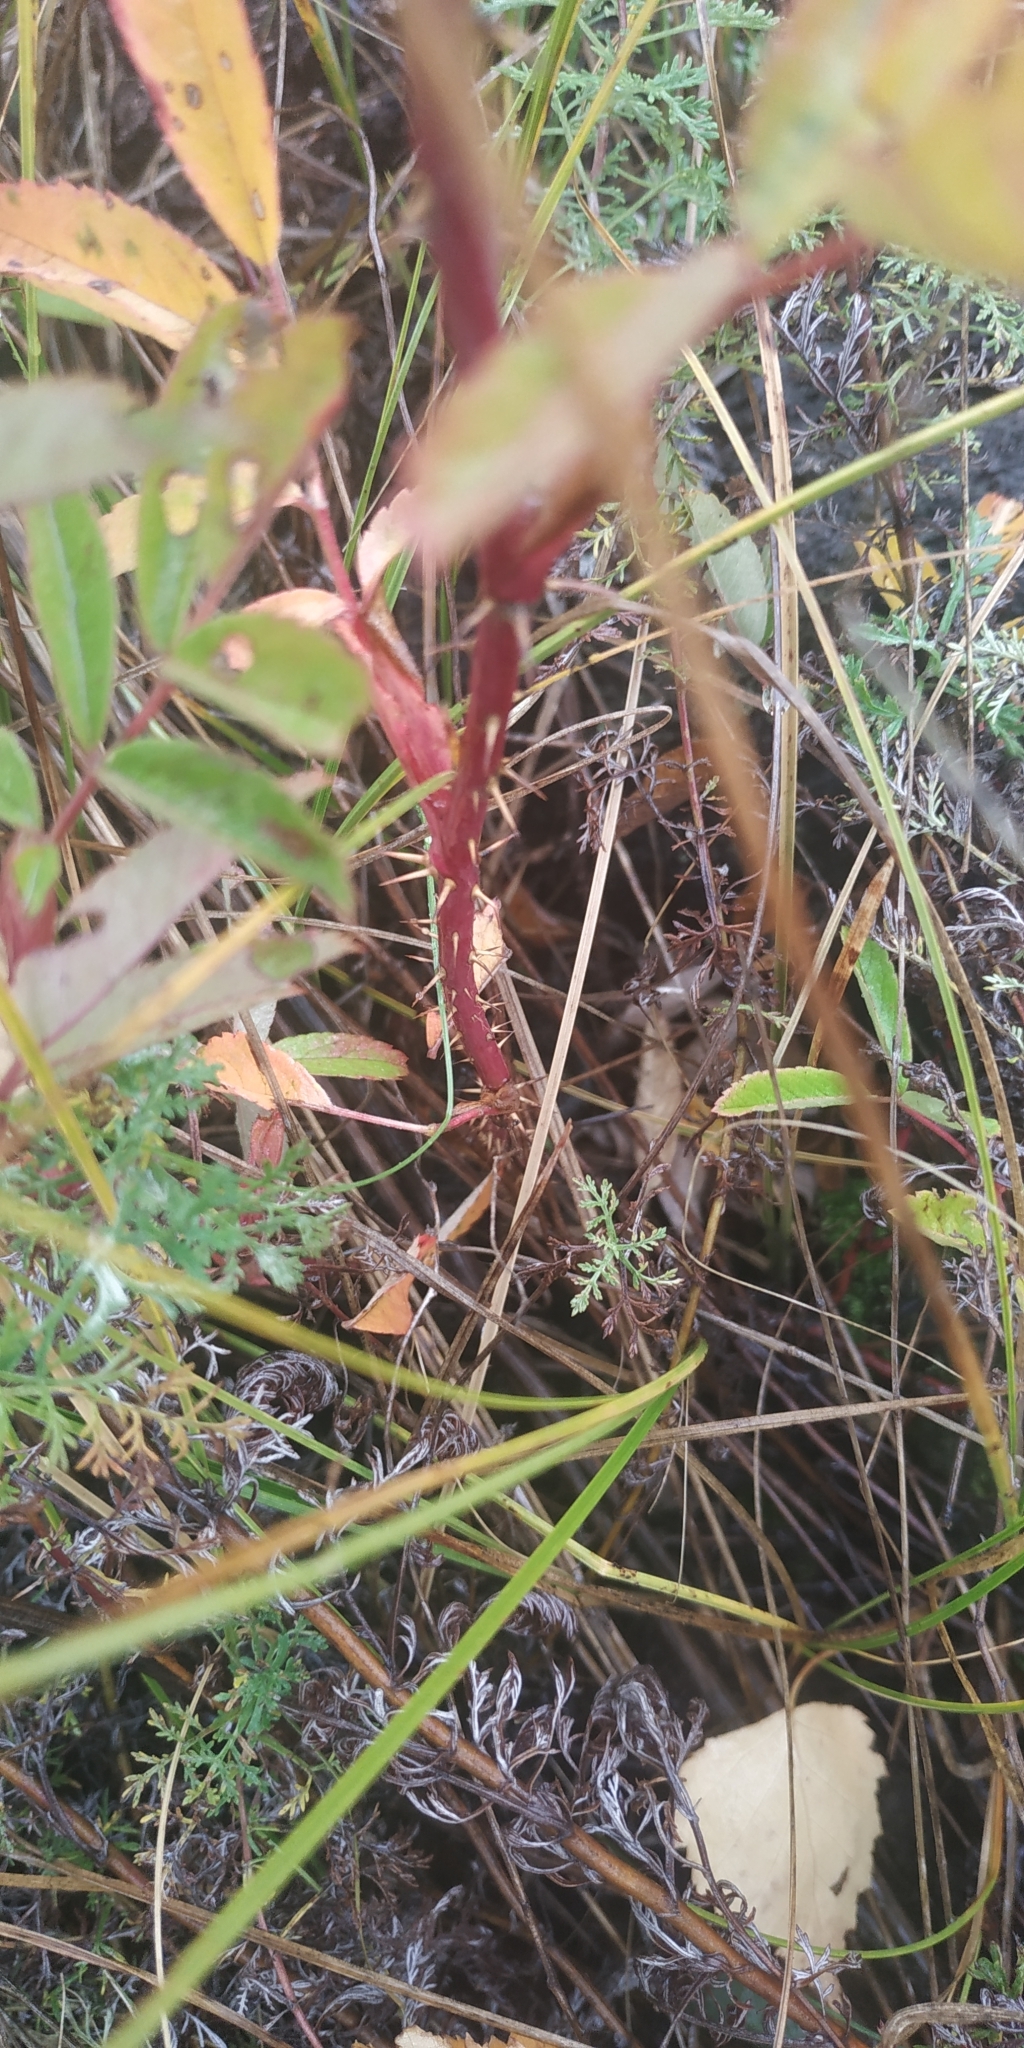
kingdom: Plantae
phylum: Tracheophyta
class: Magnoliopsida
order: Rosales
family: Rosaceae
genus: Rosa
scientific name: Rosa majalis
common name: Cinnamon rose
